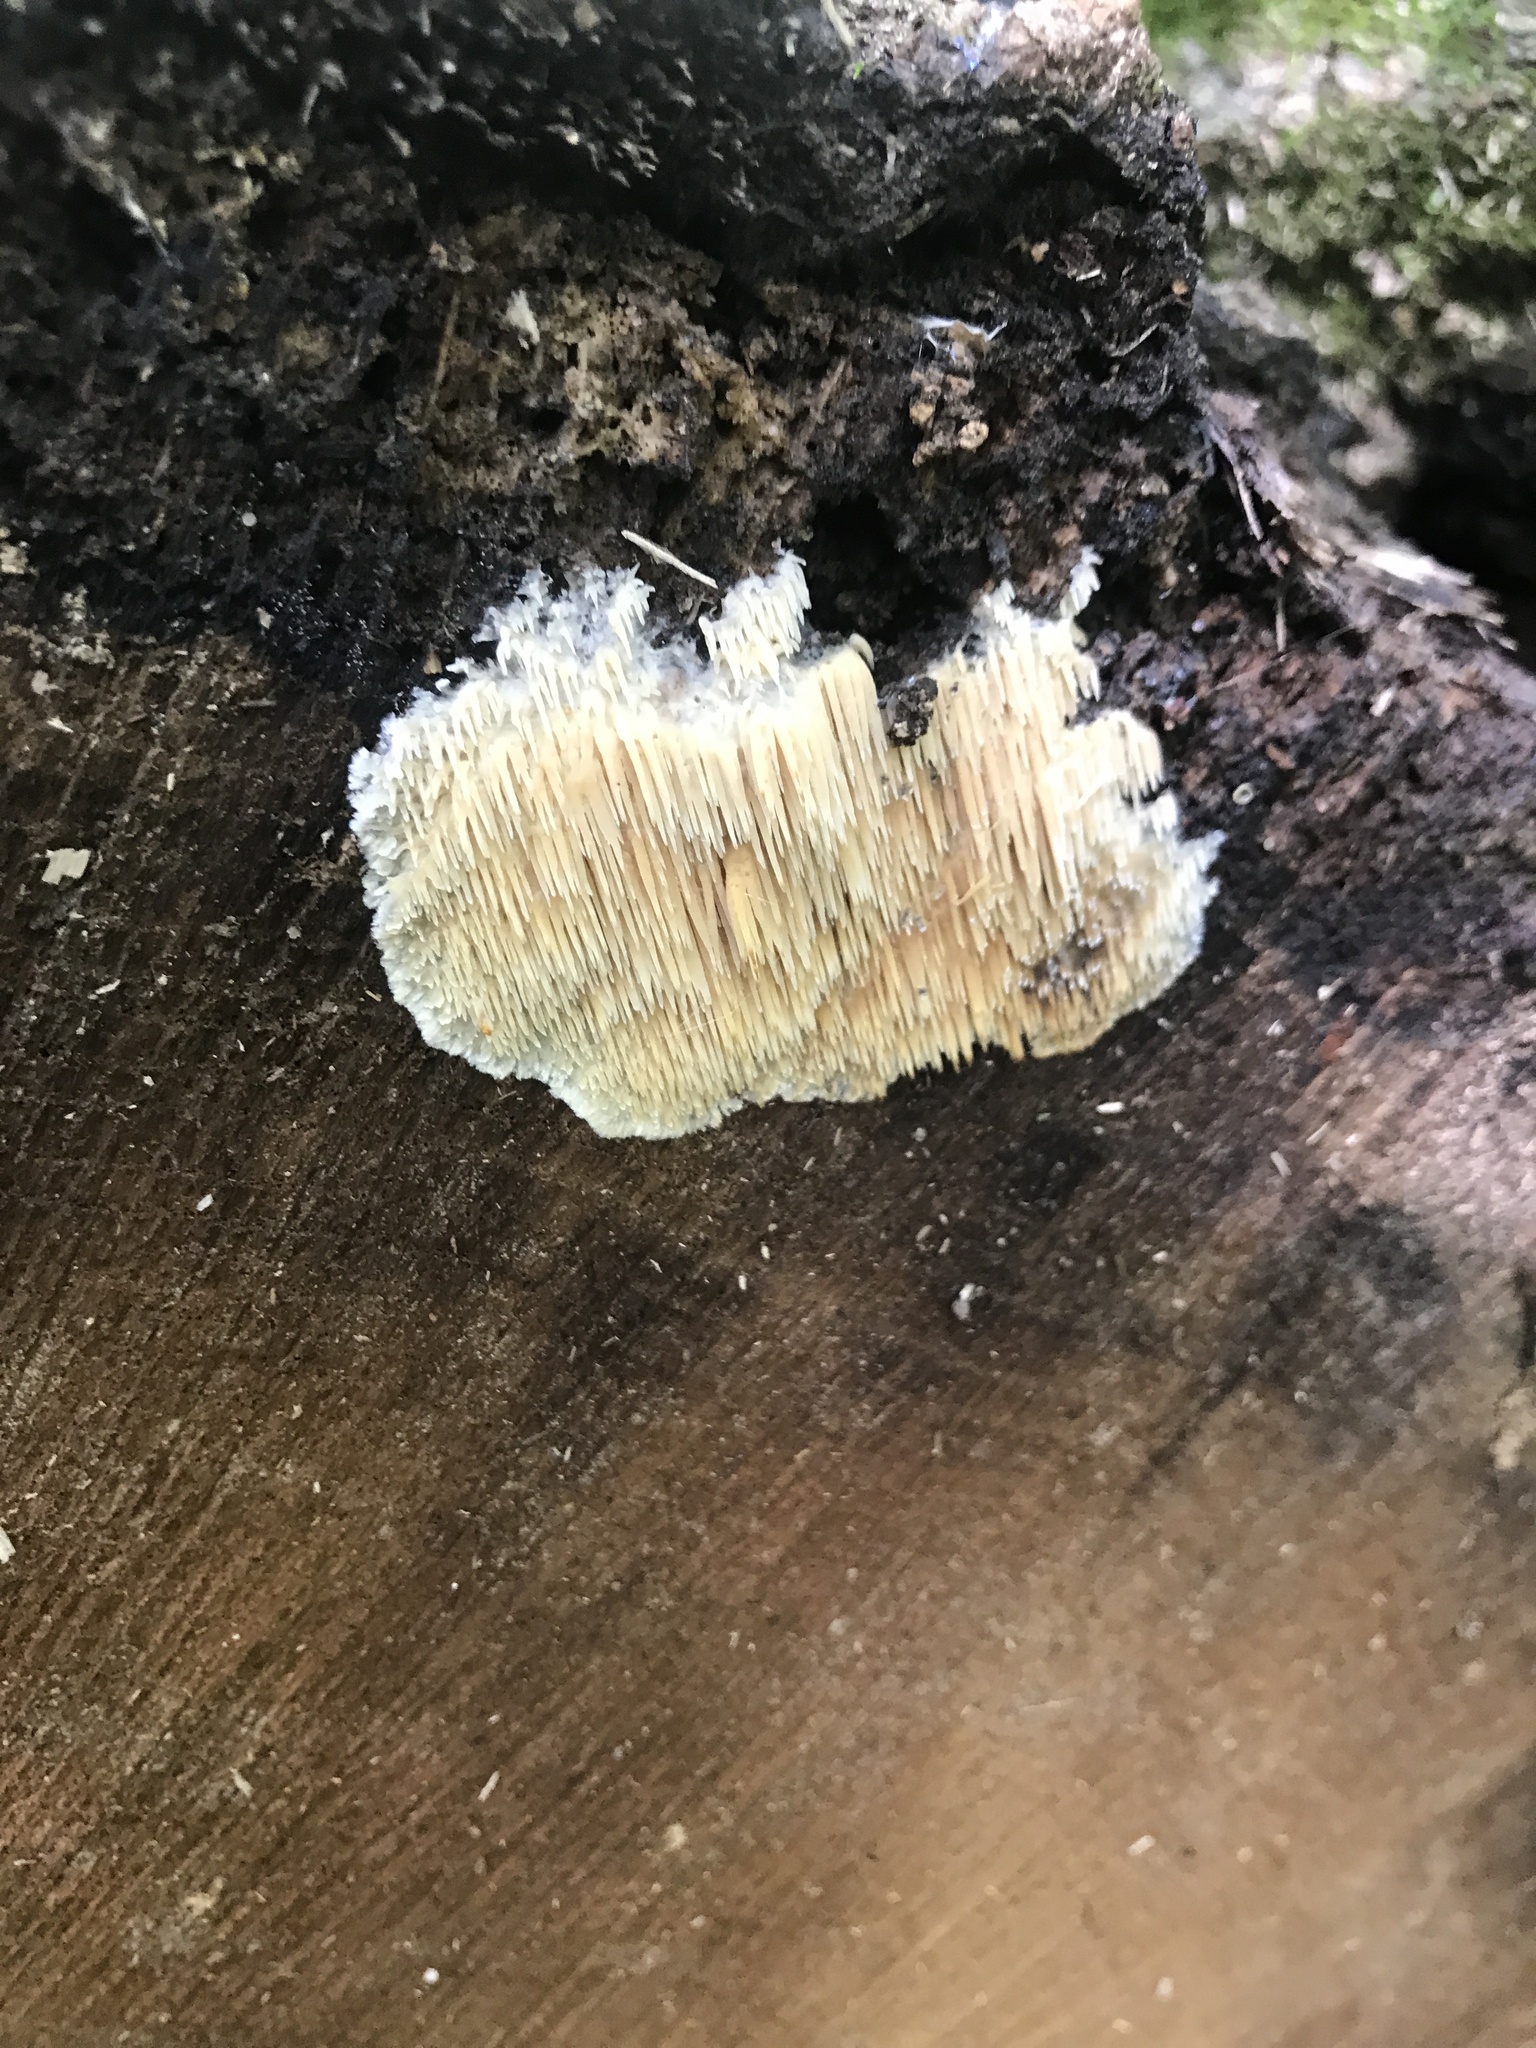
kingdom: Fungi
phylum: Basidiomycota
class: Agaricomycetes
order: Agaricales
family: Radulomycetaceae
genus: Radulomyces
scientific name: Radulomyces copelandii
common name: Asian beauty
